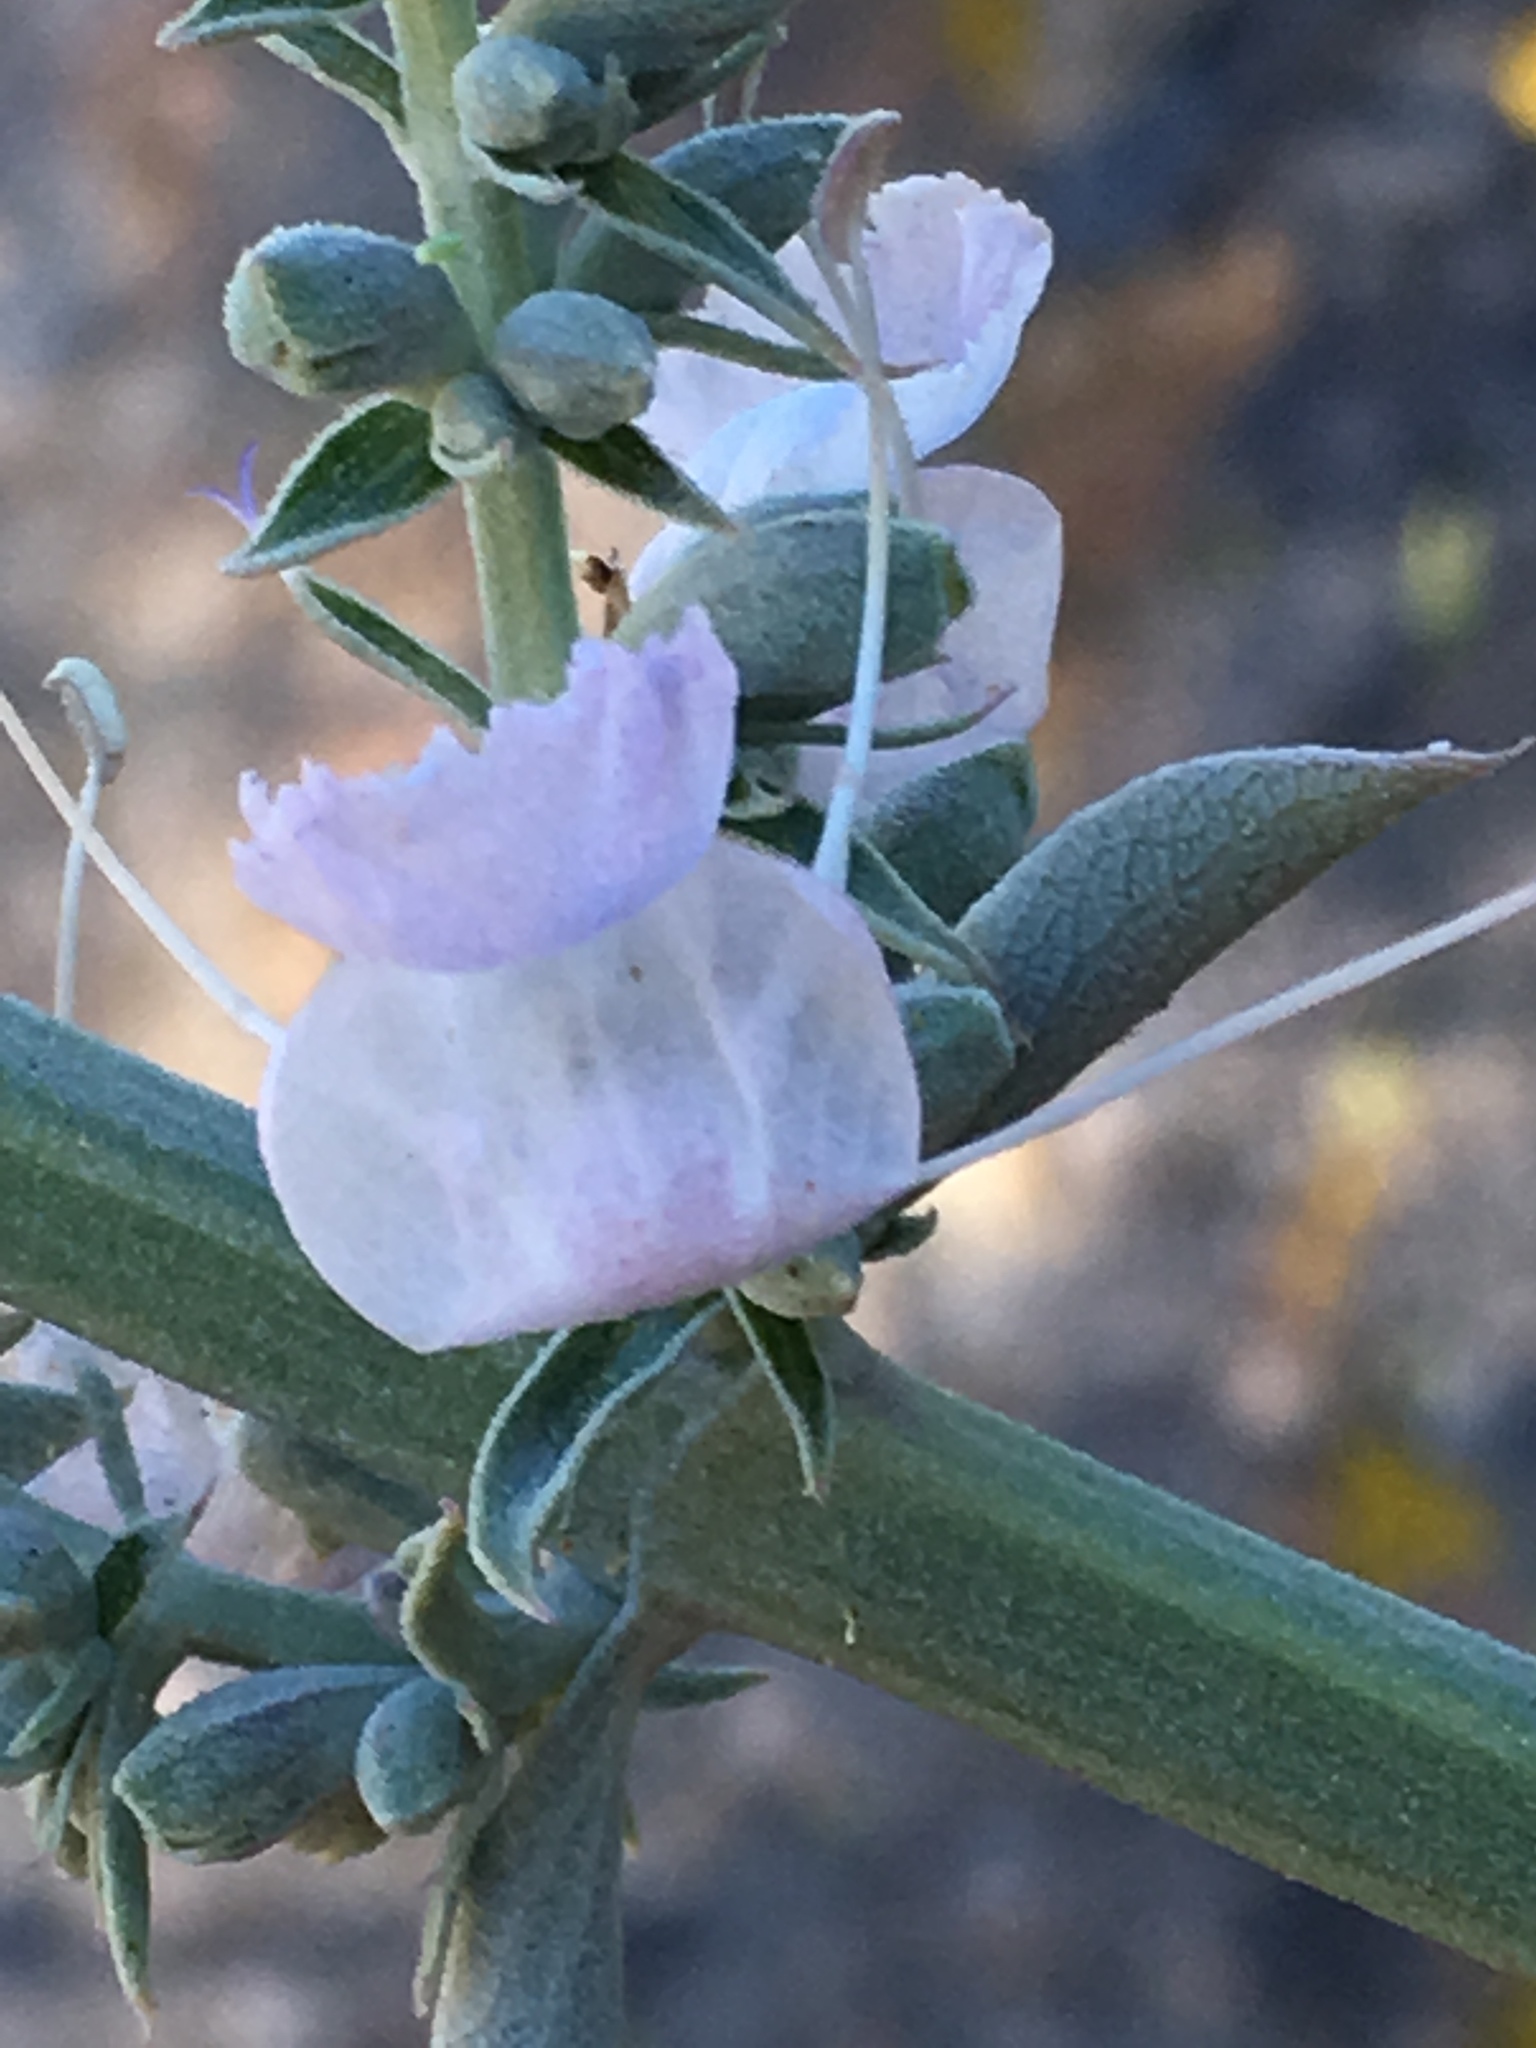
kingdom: Plantae
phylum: Tracheophyta
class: Magnoliopsida
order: Lamiales
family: Lamiaceae
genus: Salvia
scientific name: Salvia apiana
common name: White sage
